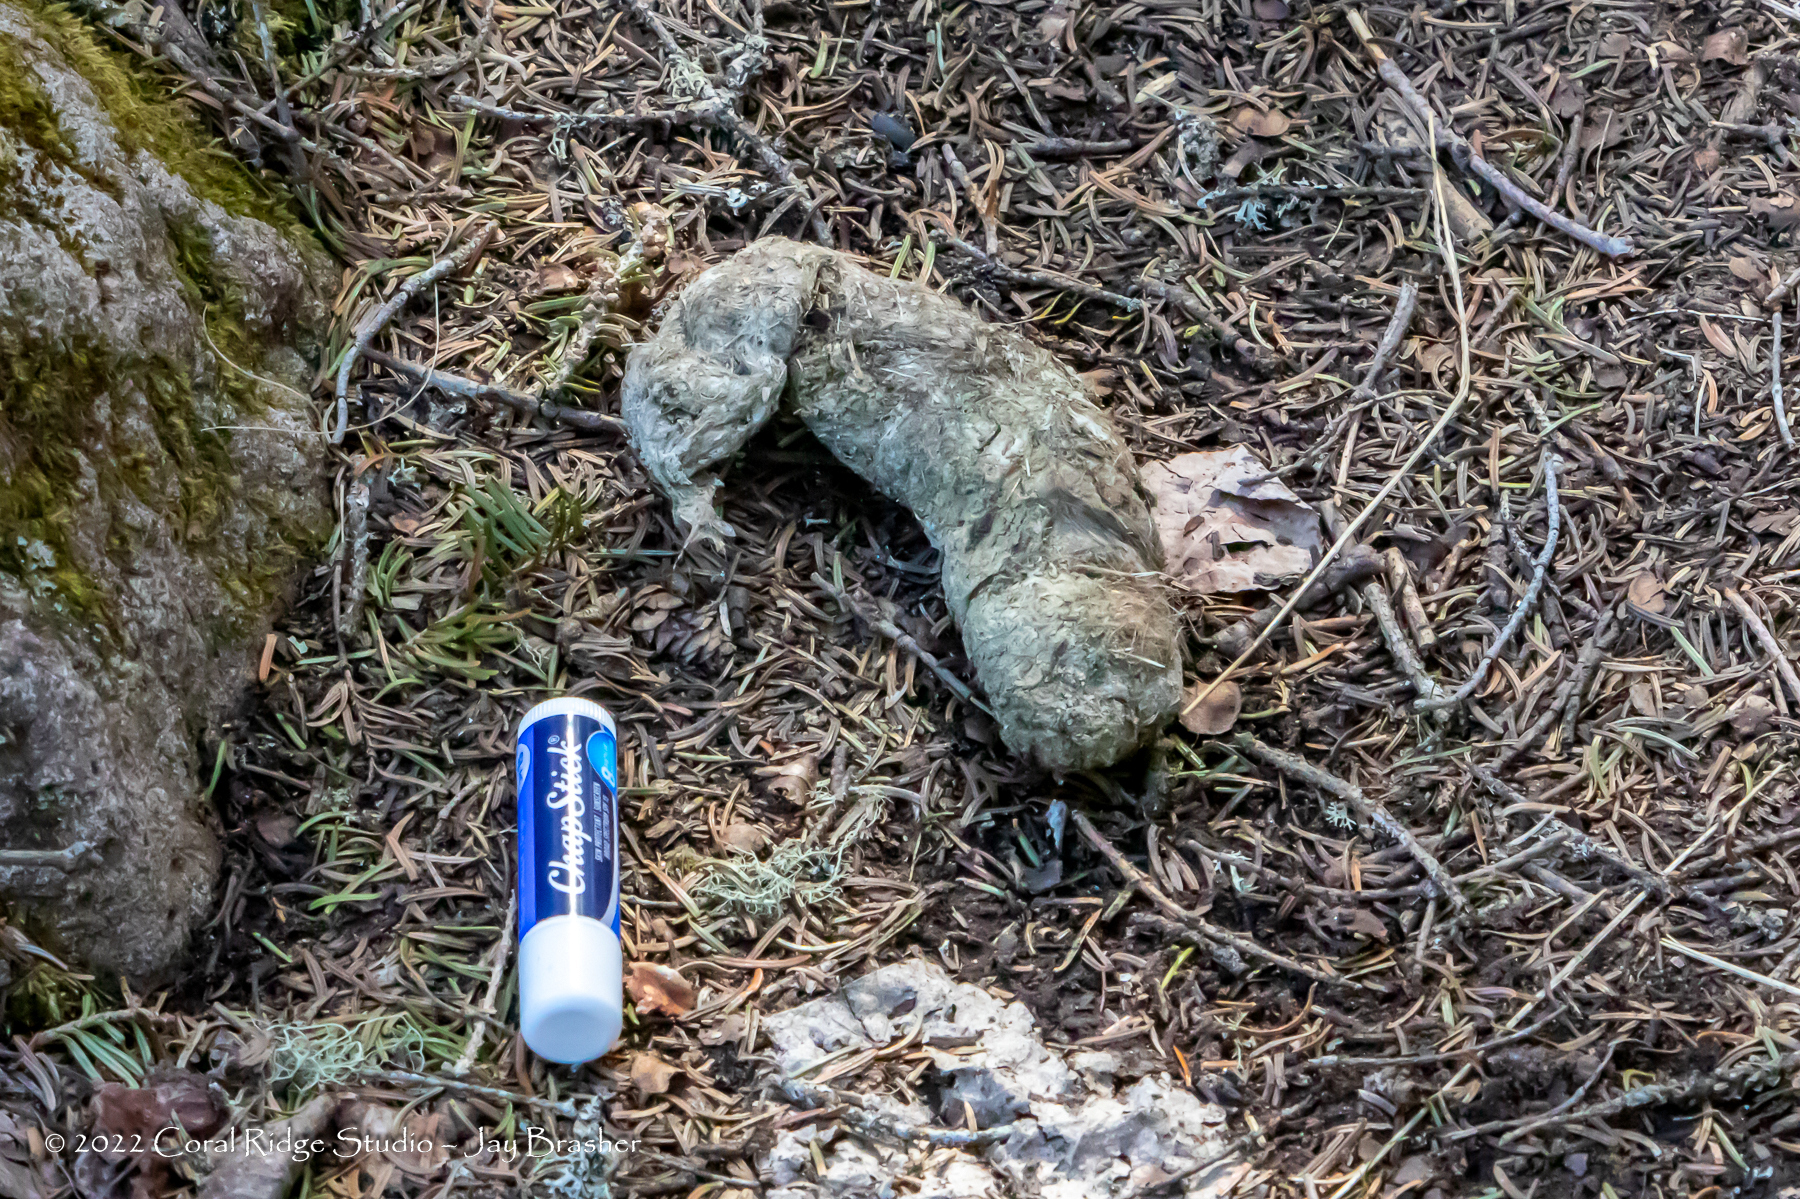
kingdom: Animalia
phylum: Chordata
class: Mammalia
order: Carnivora
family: Canidae
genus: Canis
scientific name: Canis lupus
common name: Gray wolf
